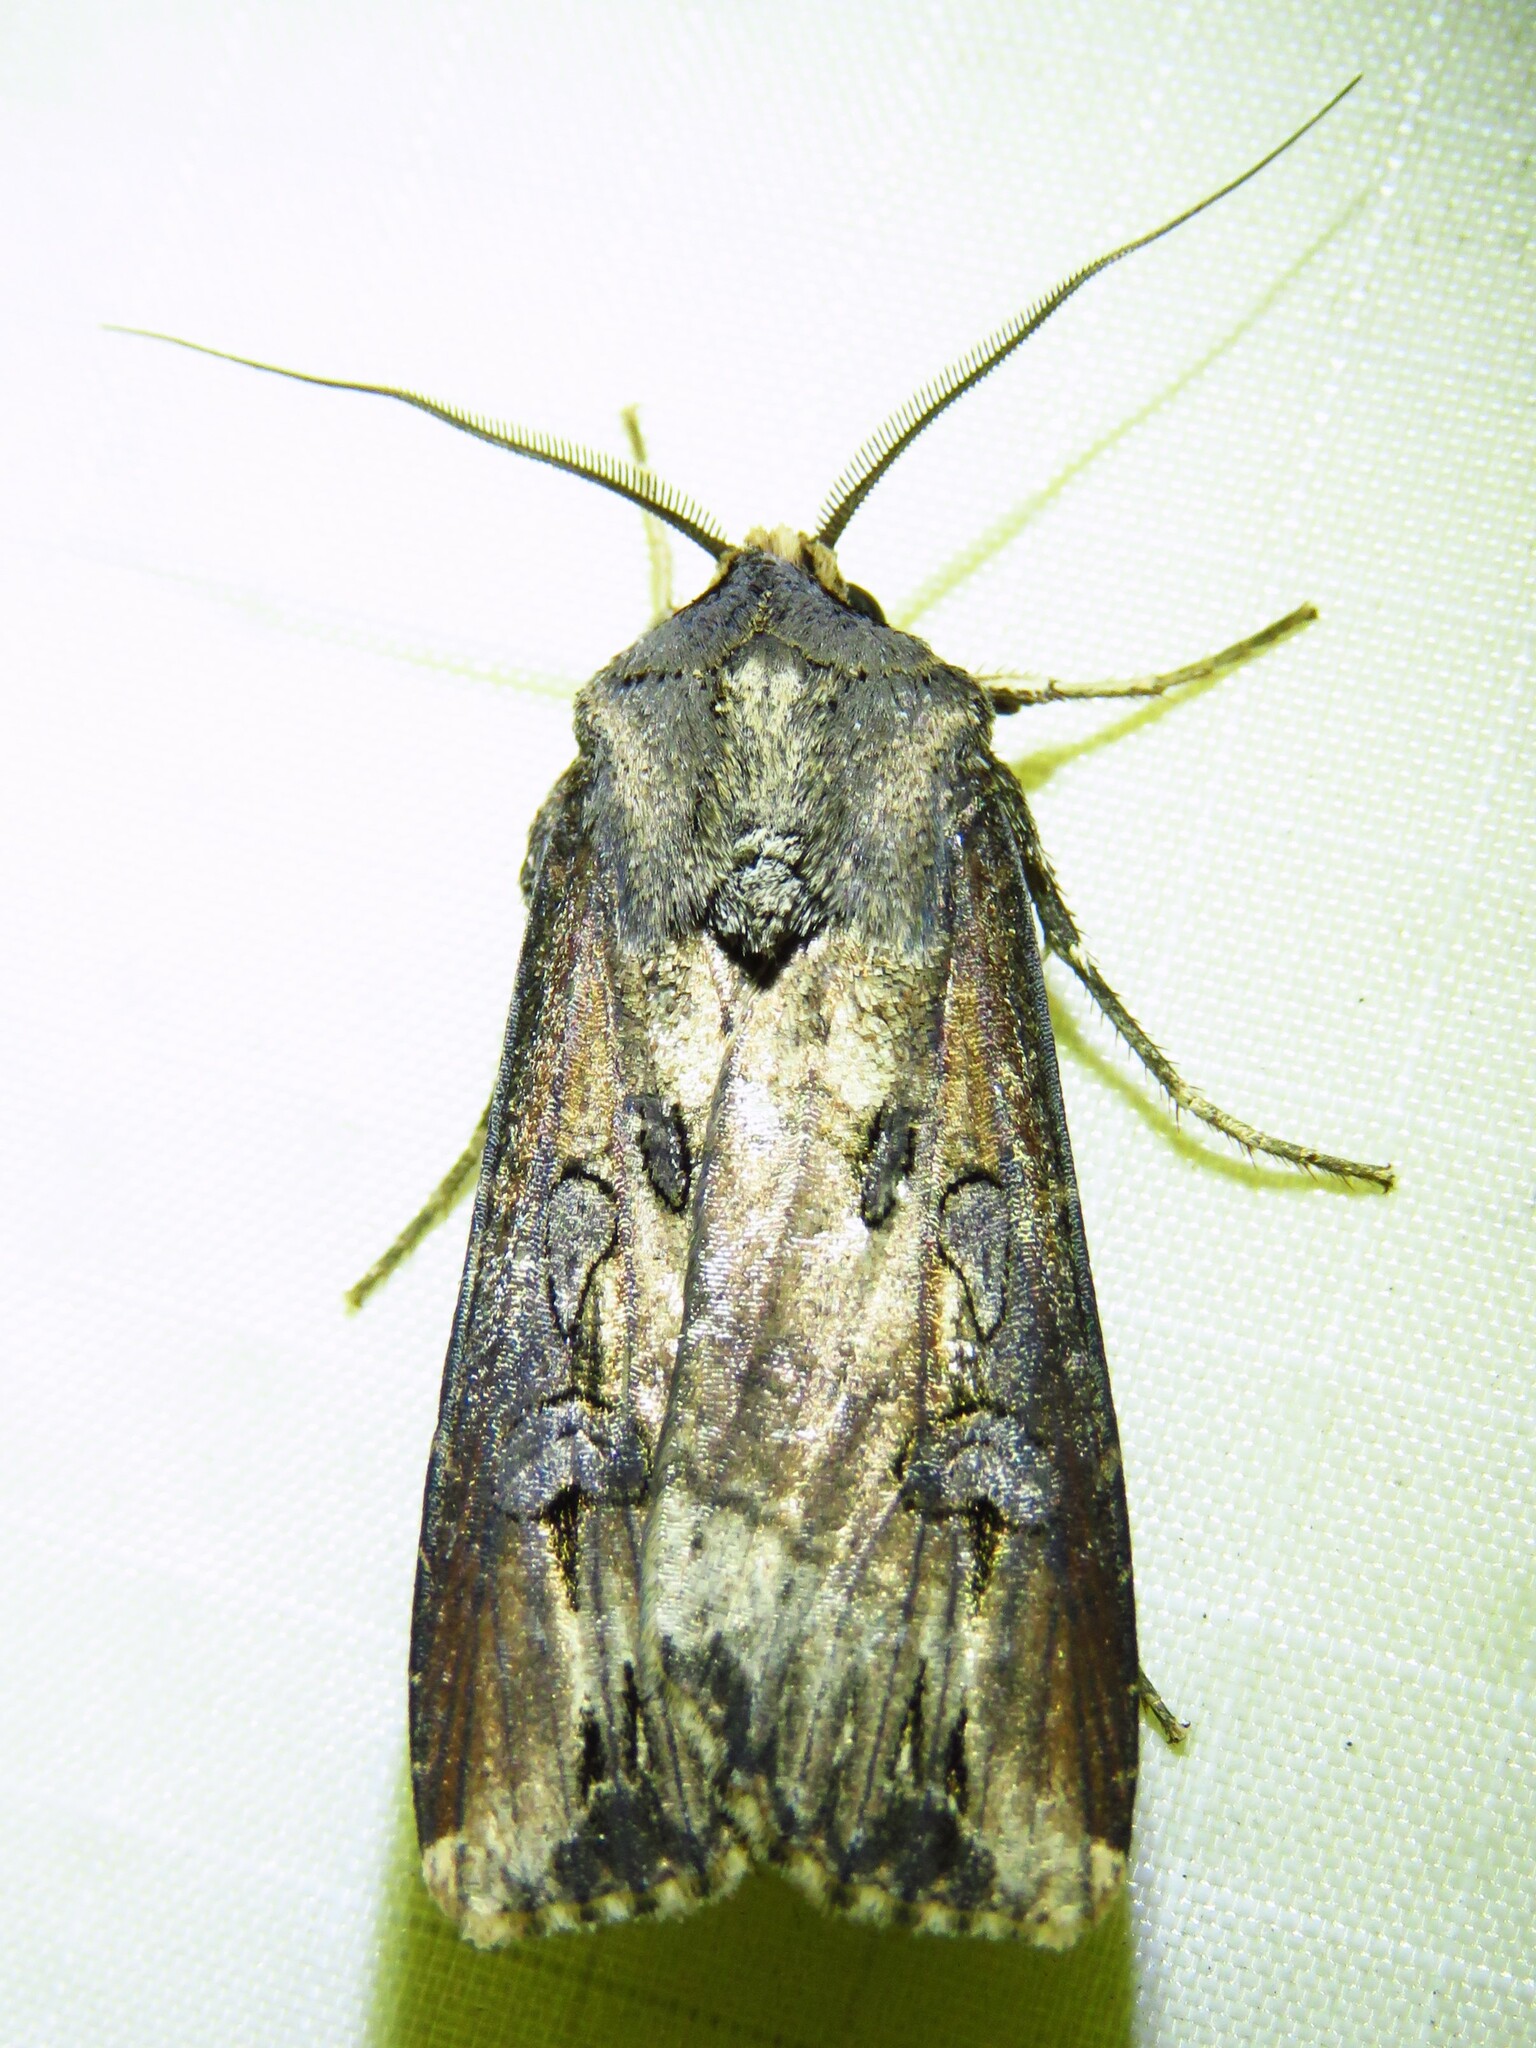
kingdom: Animalia
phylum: Arthropoda
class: Insecta
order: Lepidoptera
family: Noctuidae
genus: Agrotis
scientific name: Agrotis ipsilon
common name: Dark sword-grass
